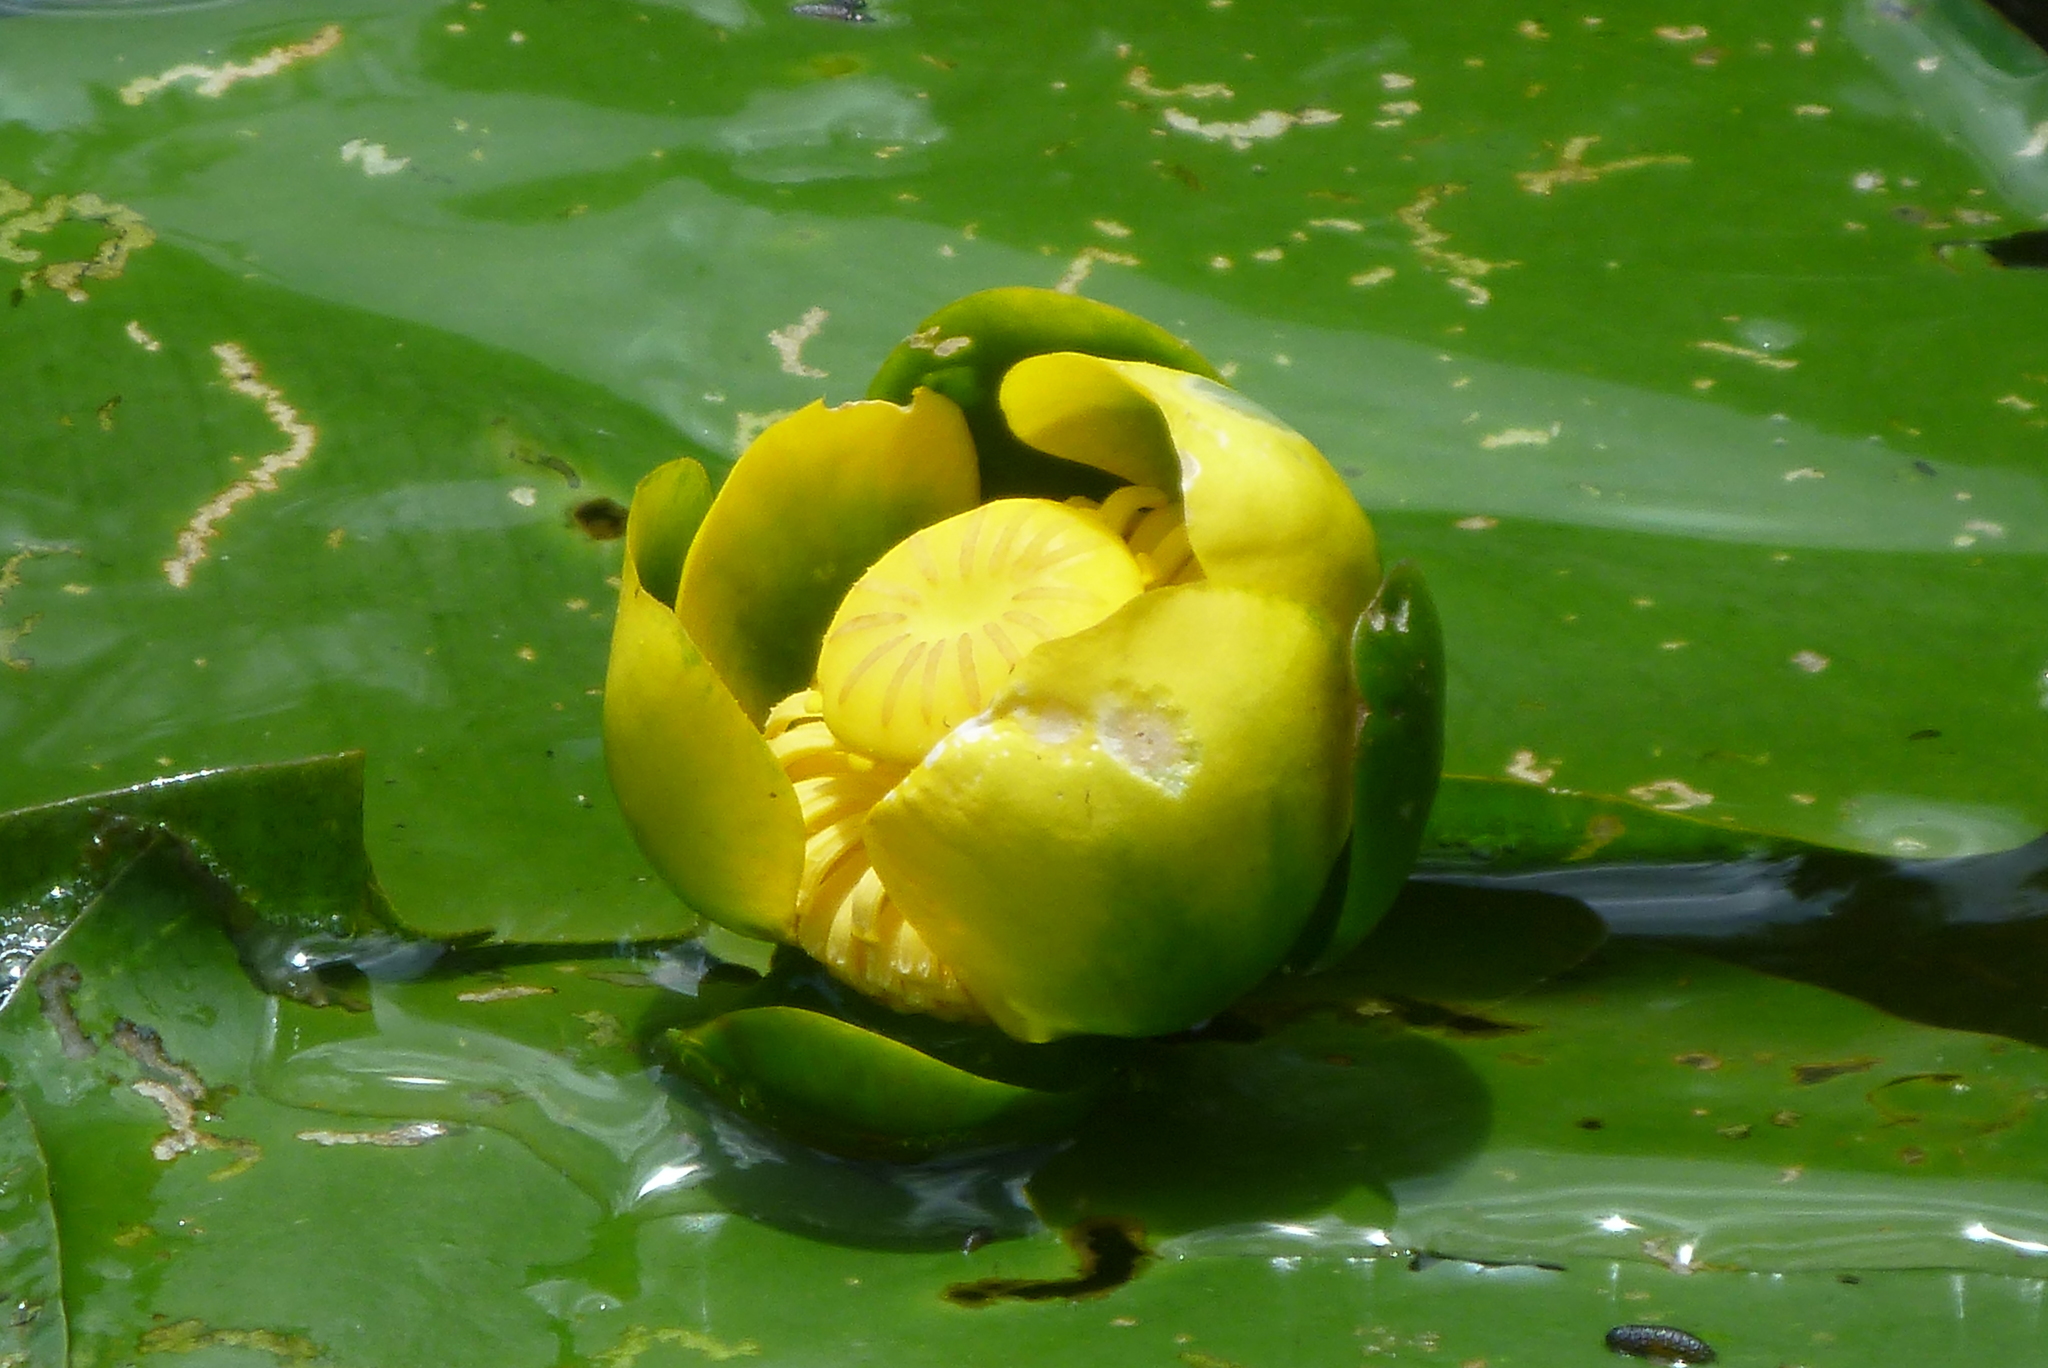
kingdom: Plantae
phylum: Tracheophyta
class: Magnoliopsida
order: Nymphaeales
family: Nymphaeaceae
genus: Nuphar
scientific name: Nuphar advena
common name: Spatter-dock
